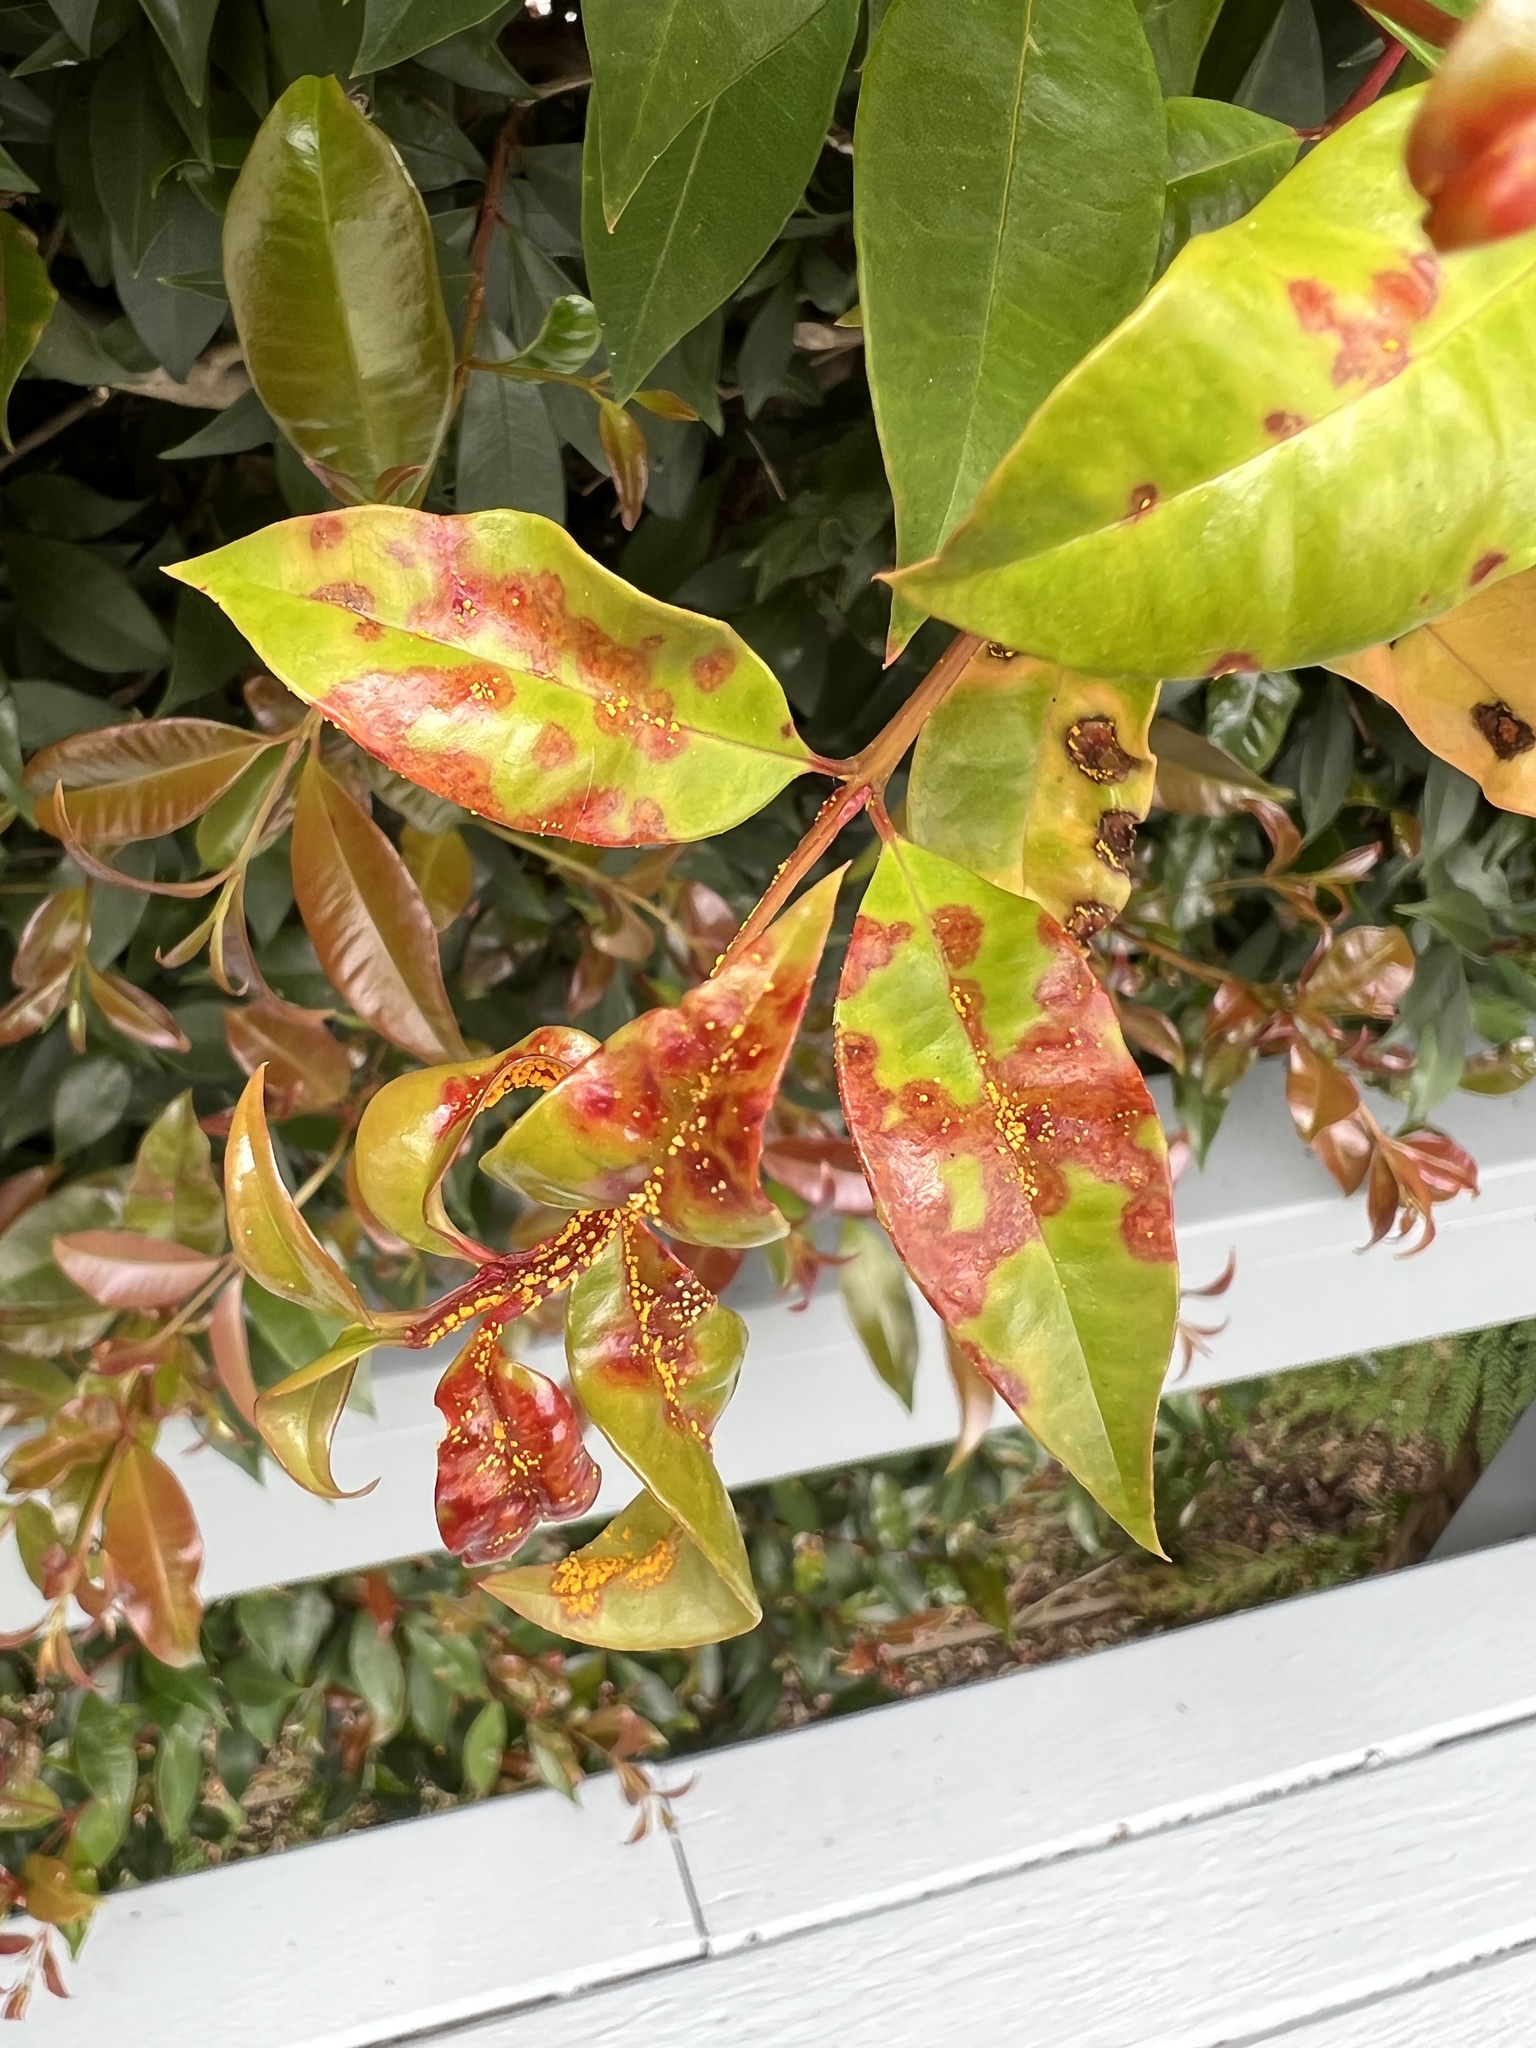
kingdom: Fungi
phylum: Basidiomycota
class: Pucciniomycetes
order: Pucciniales
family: Sphaerophragmiaceae
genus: Austropuccinia
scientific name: Austropuccinia psidii
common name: Myrtle rust
